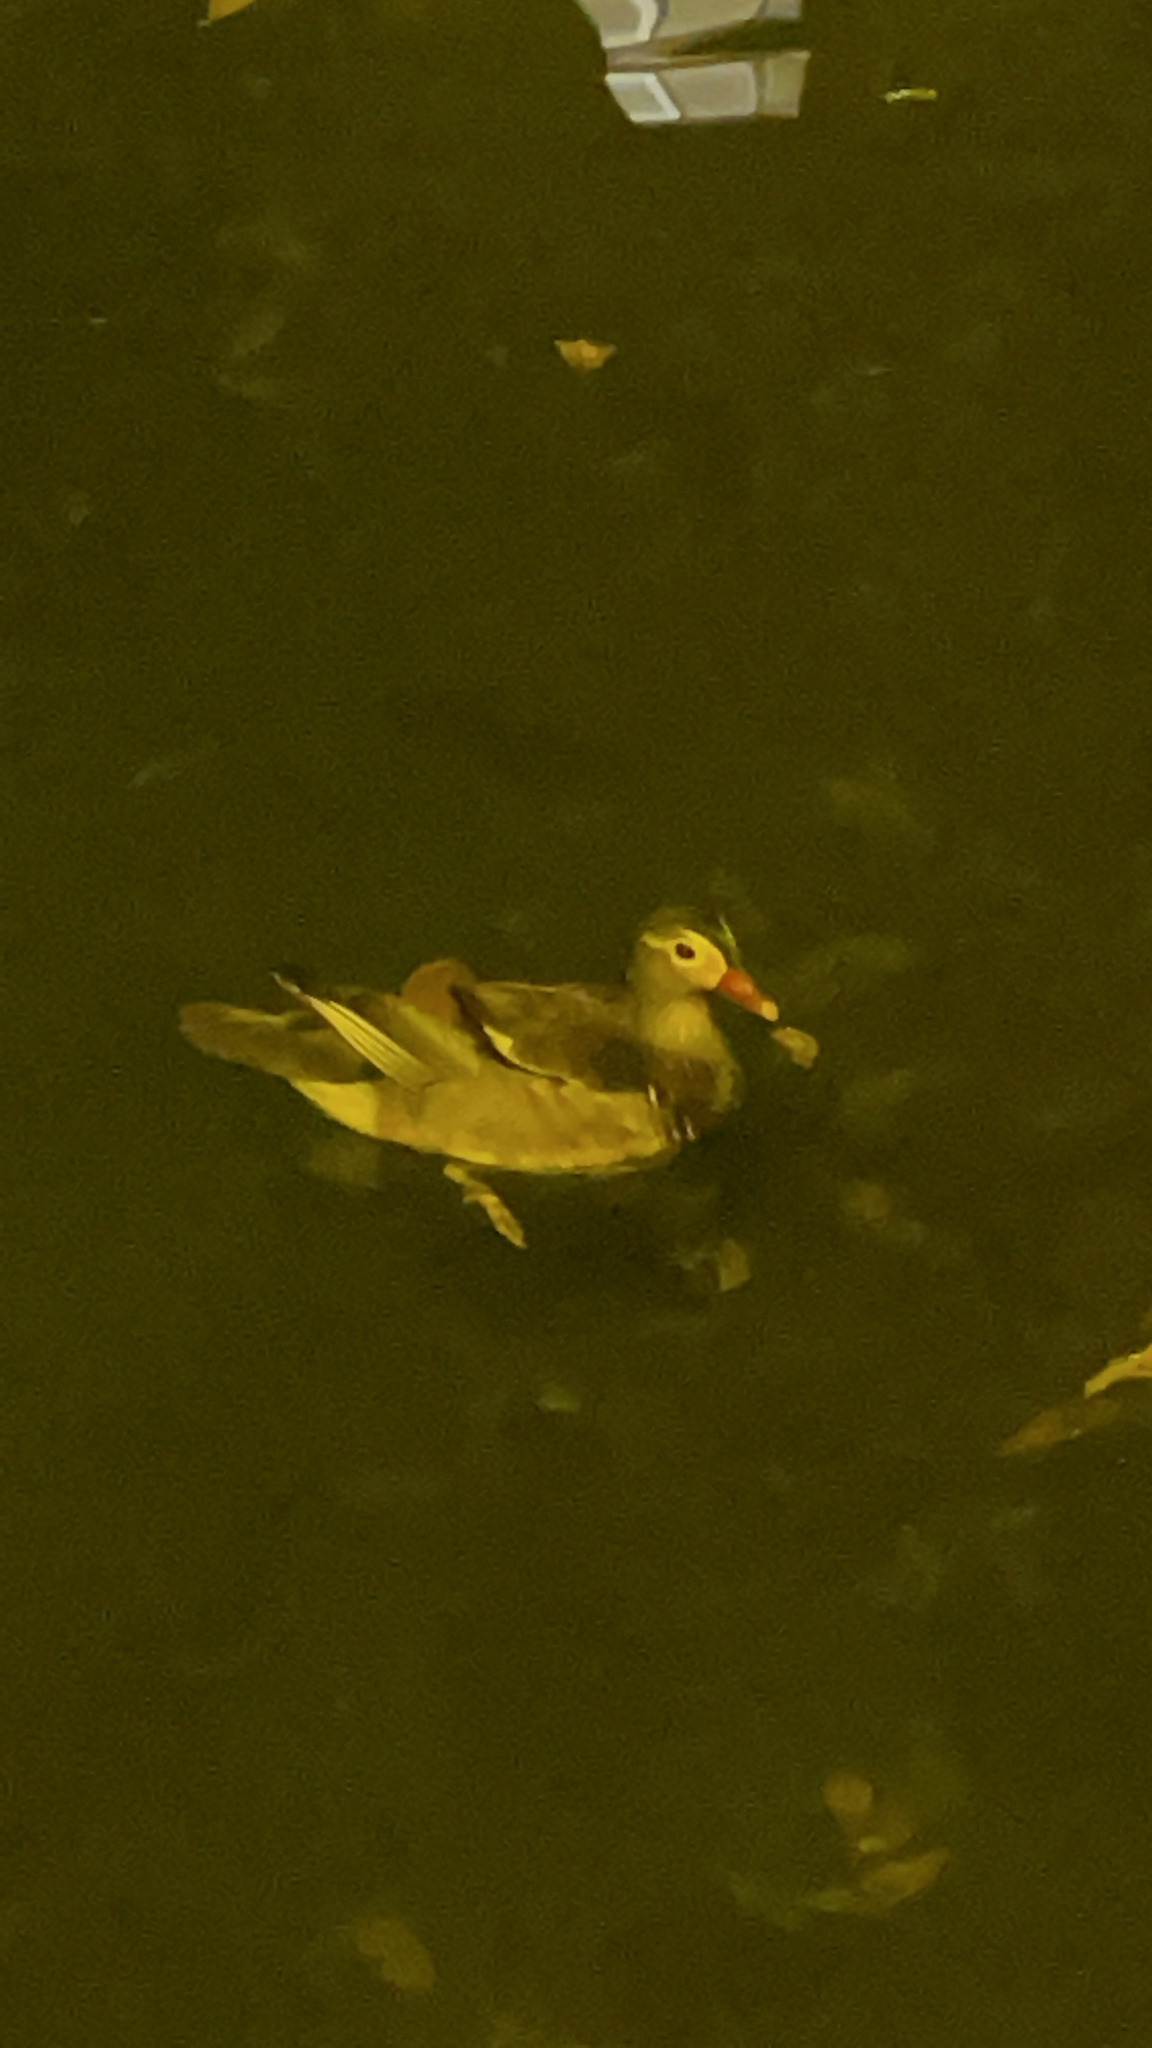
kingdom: Animalia
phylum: Chordata
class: Aves
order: Anseriformes
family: Anatidae
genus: Aix
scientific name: Aix galericulata
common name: Mandarin duck
